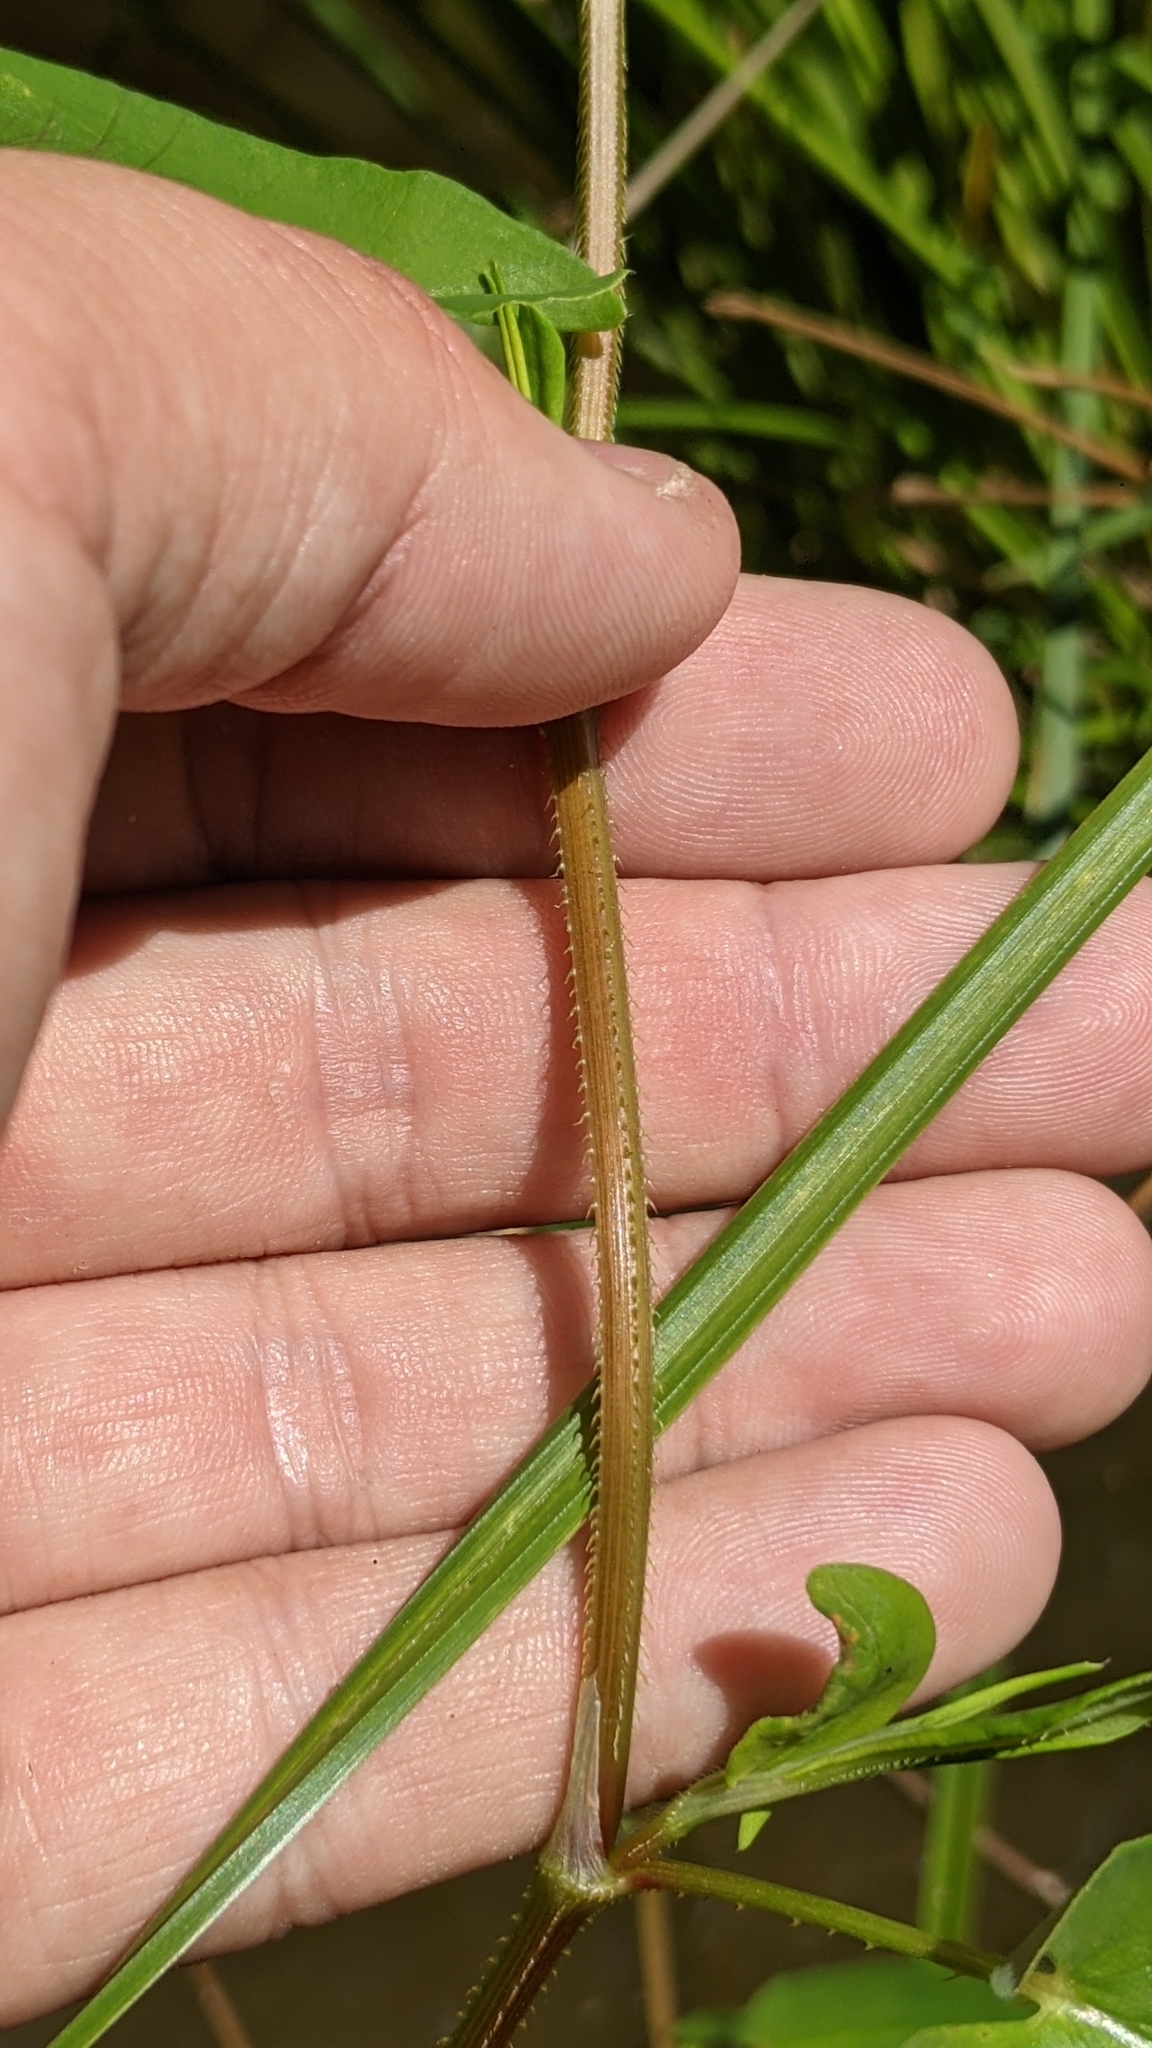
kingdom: Plantae
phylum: Tracheophyta
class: Magnoliopsida
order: Caryophyllales
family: Polygonaceae
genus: Persicaria
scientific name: Persicaria sagittata
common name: American tearthumb
